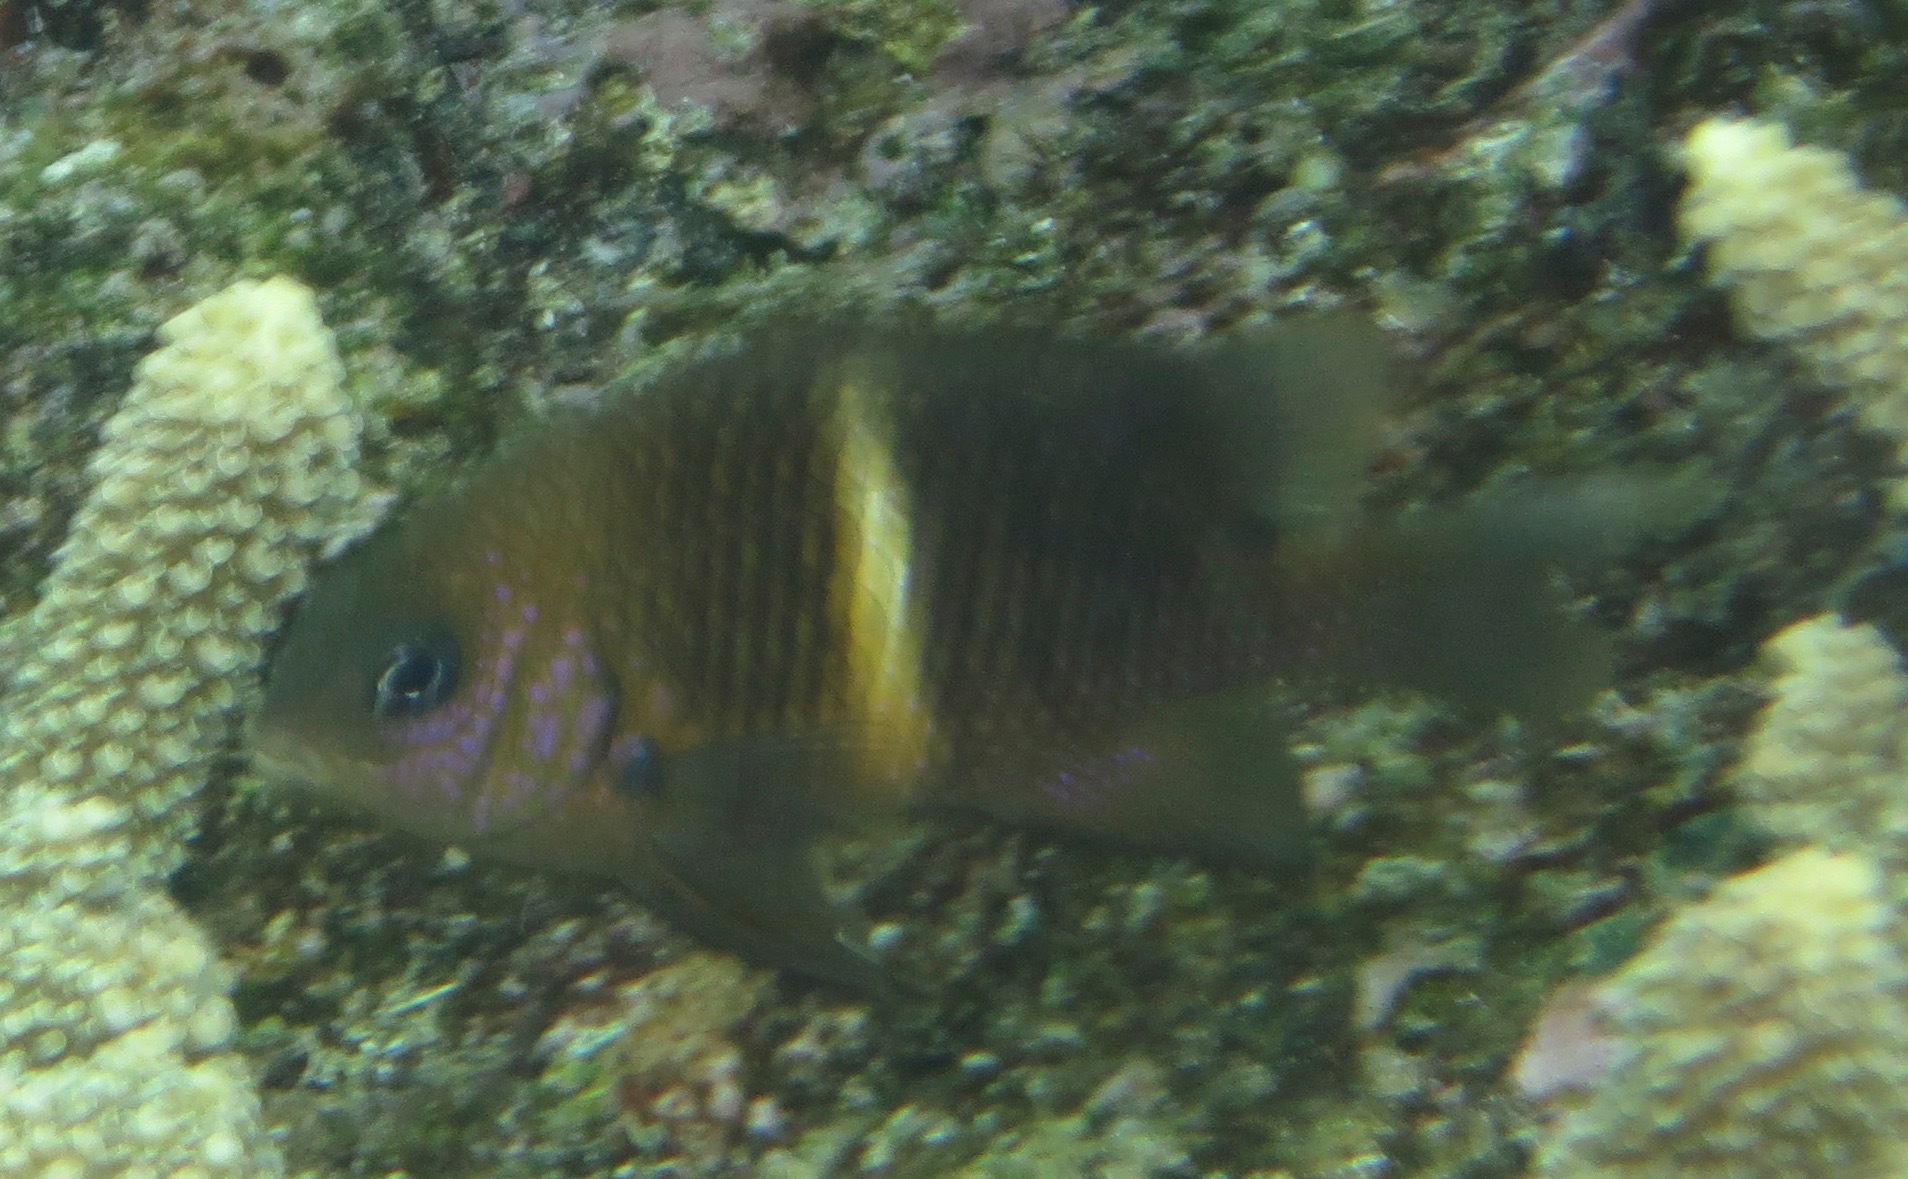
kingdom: Animalia
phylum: Chordata
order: Perciformes
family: Pomacentridae
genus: Plectroglyphidodon
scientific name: Plectroglyphidodon leucozonus
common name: White-band damsel
